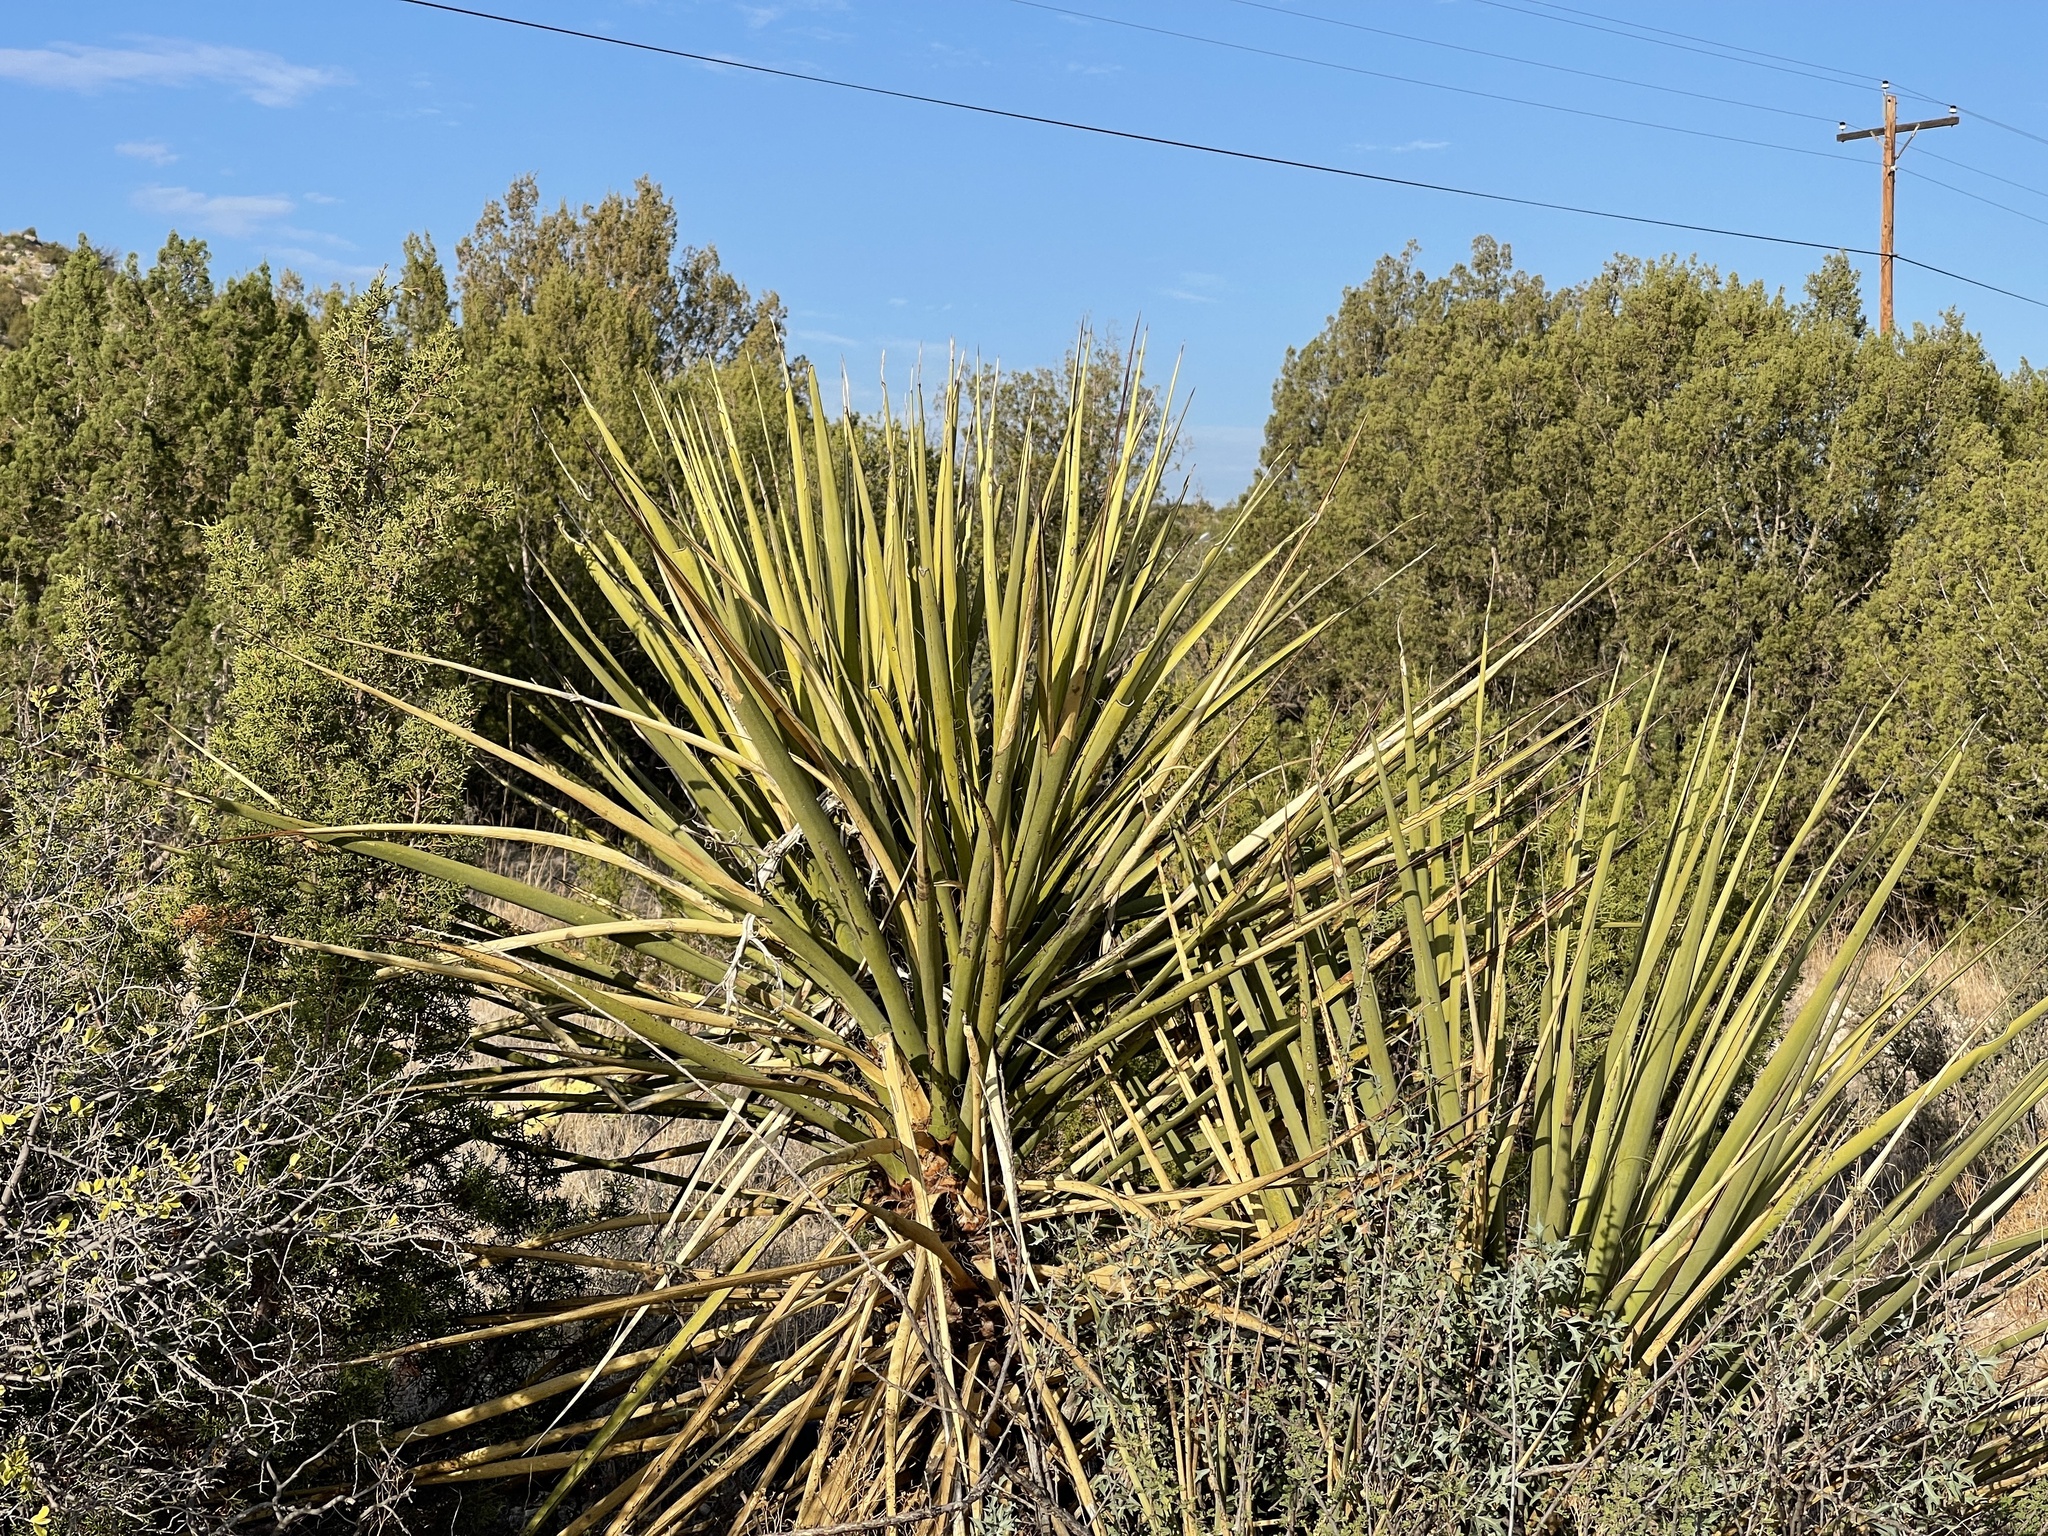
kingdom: Plantae
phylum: Tracheophyta
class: Liliopsida
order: Asparagales
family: Asparagaceae
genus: Yucca
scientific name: Yucca treculiana
